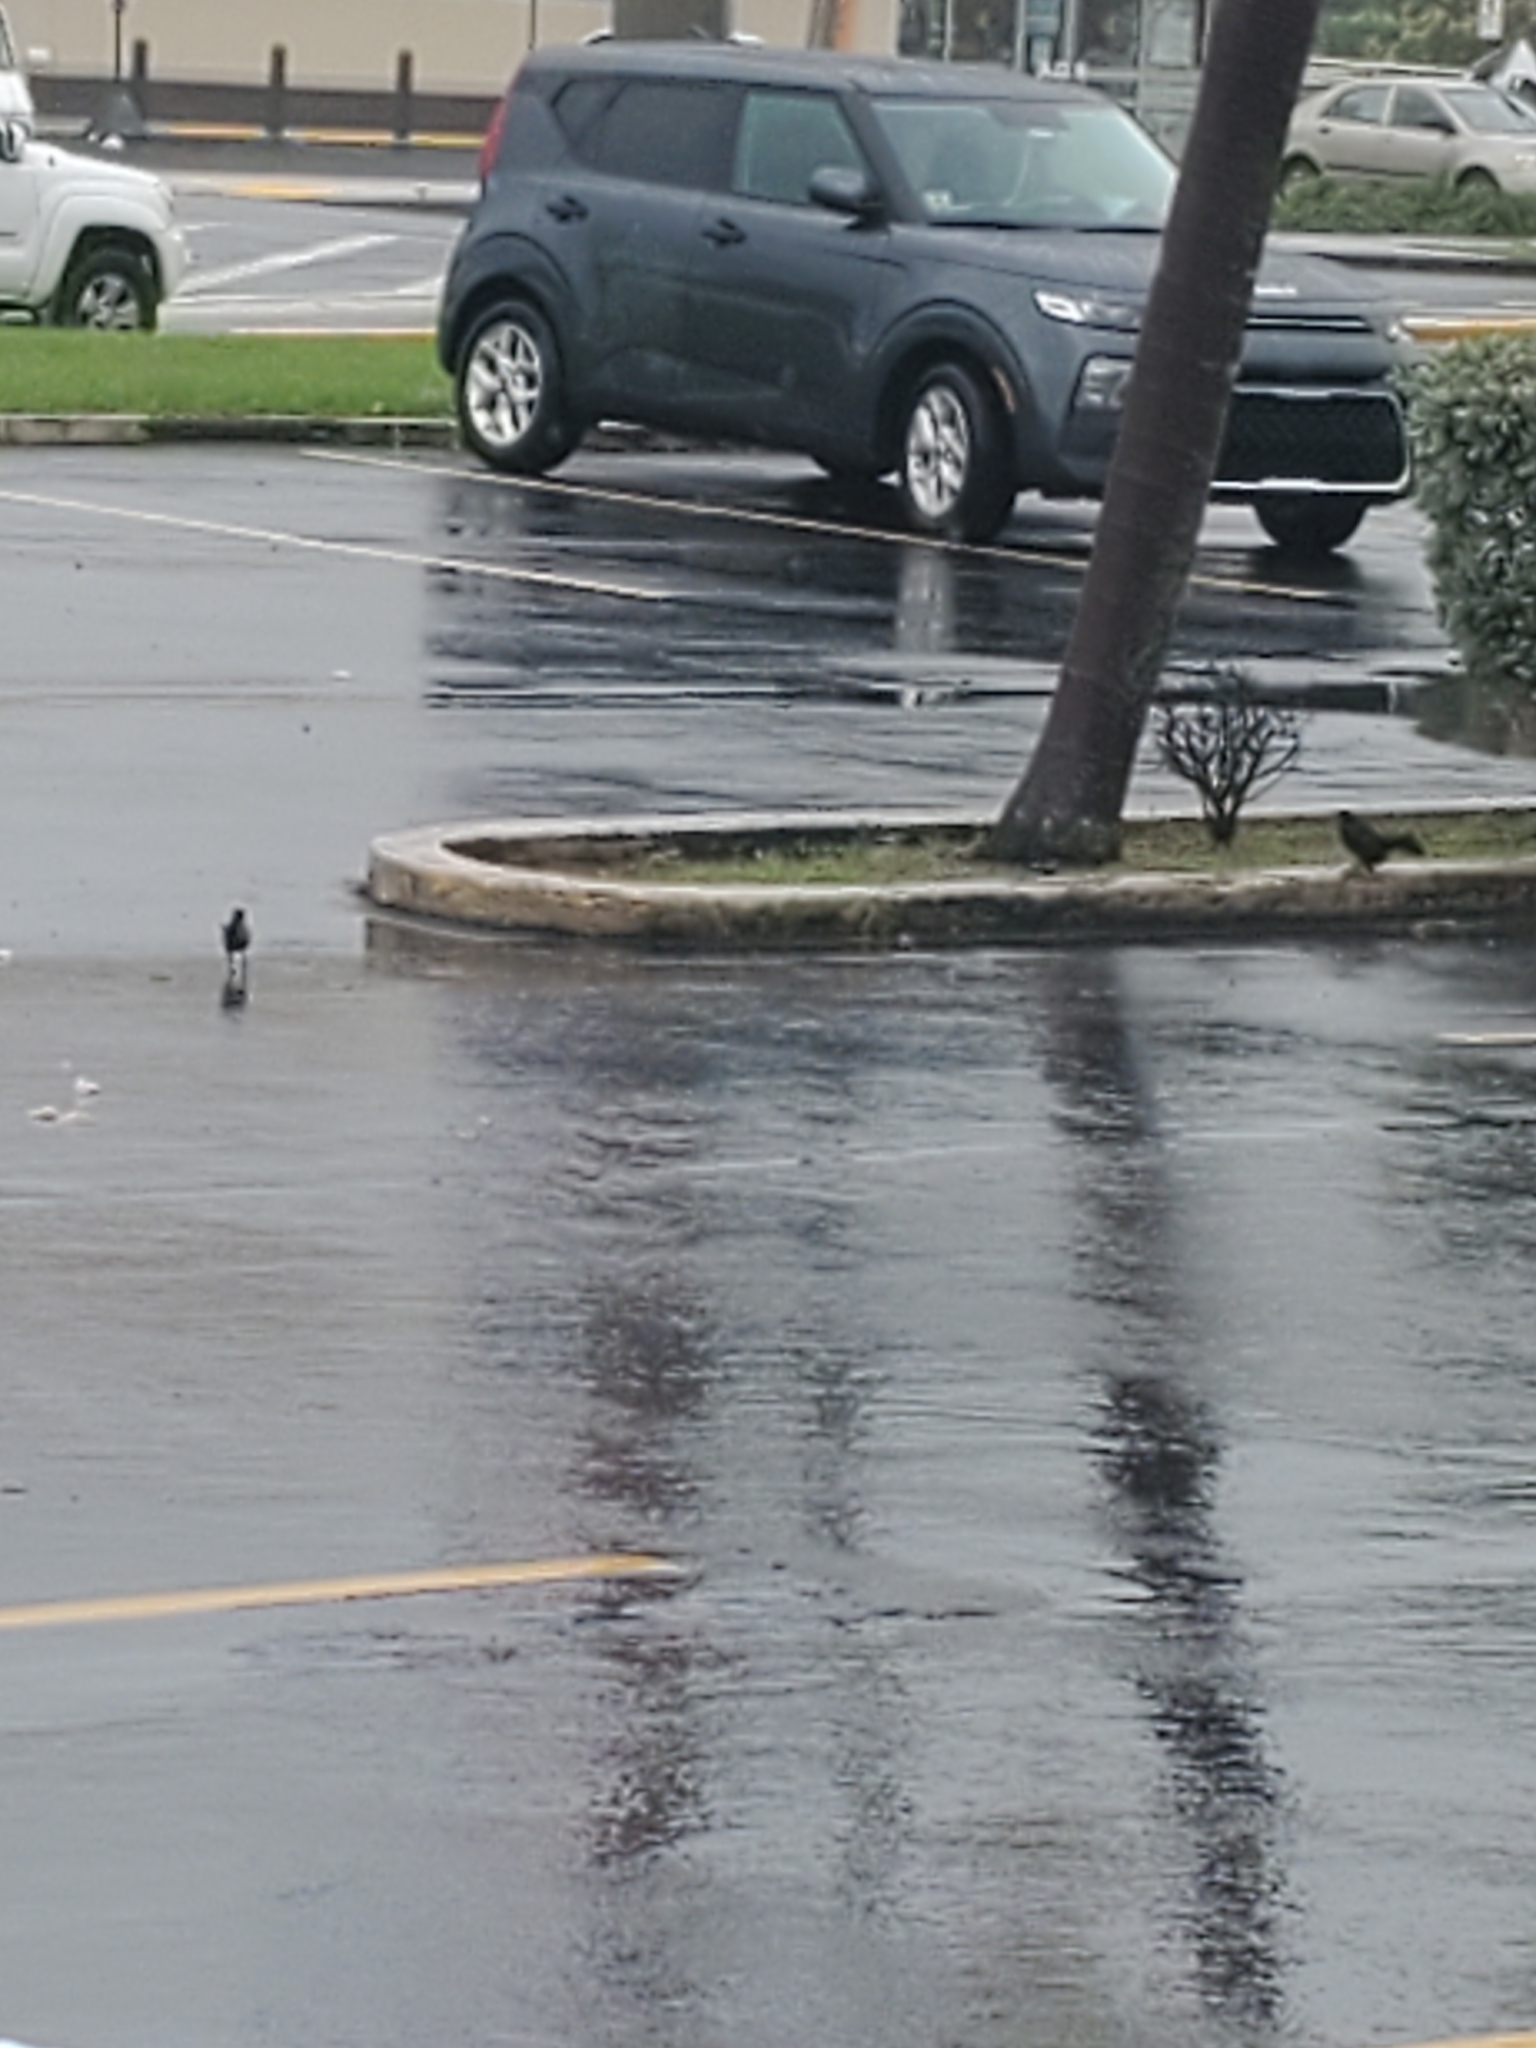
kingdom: Animalia
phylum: Chordata
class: Aves
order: Passeriformes
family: Icteridae
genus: Quiscalus
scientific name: Quiscalus niger
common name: Greater antillean grackle
